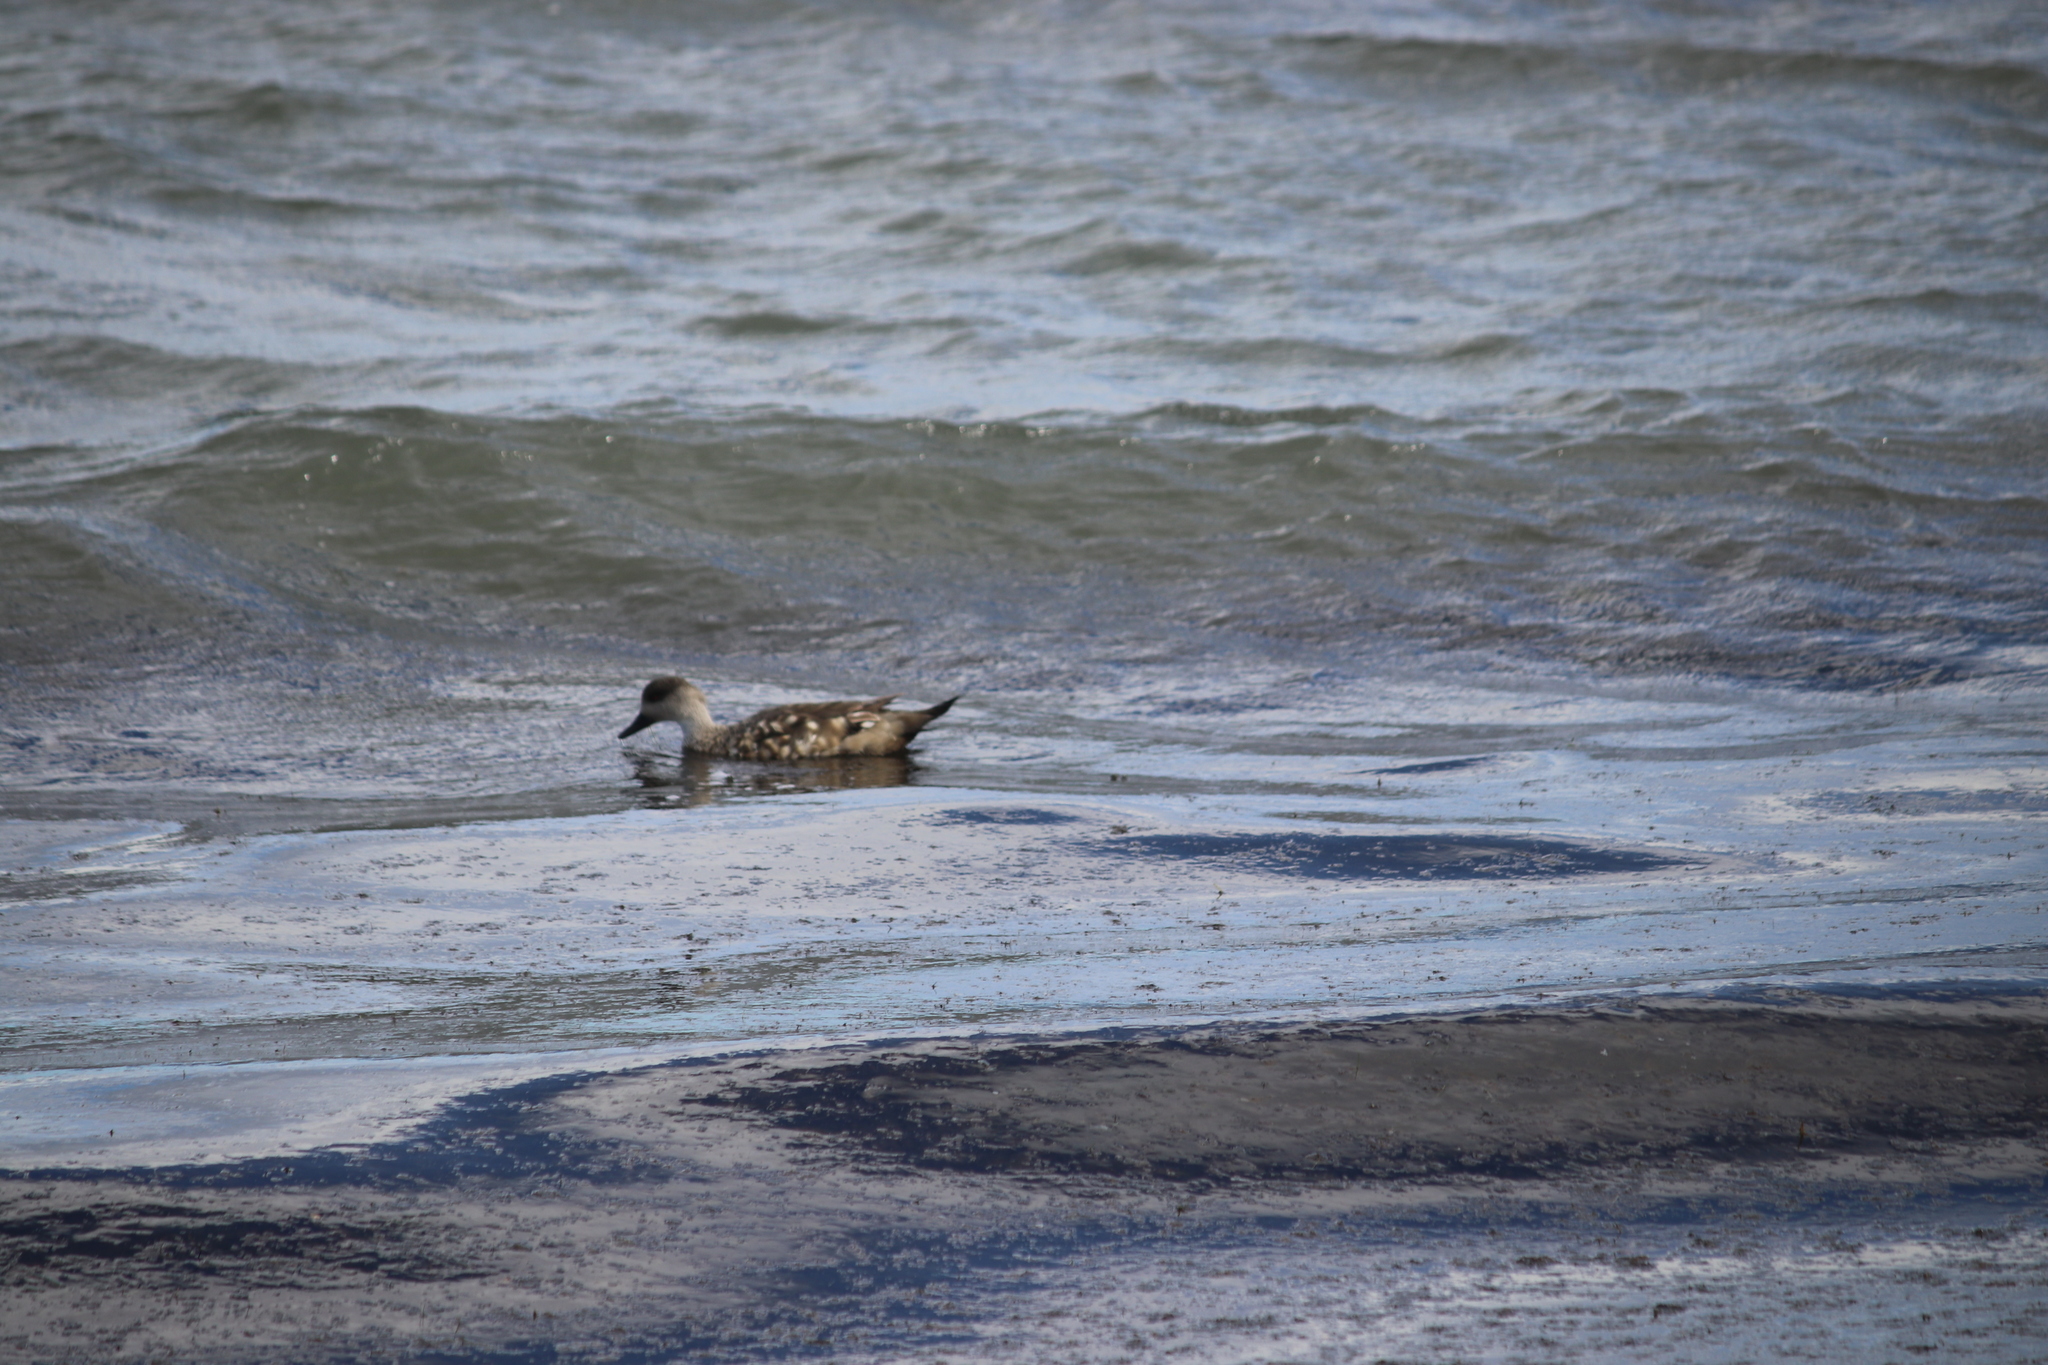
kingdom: Animalia
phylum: Chordata
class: Aves
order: Anseriformes
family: Anatidae
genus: Lophonetta
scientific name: Lophonetta specularioides
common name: Crested duck
